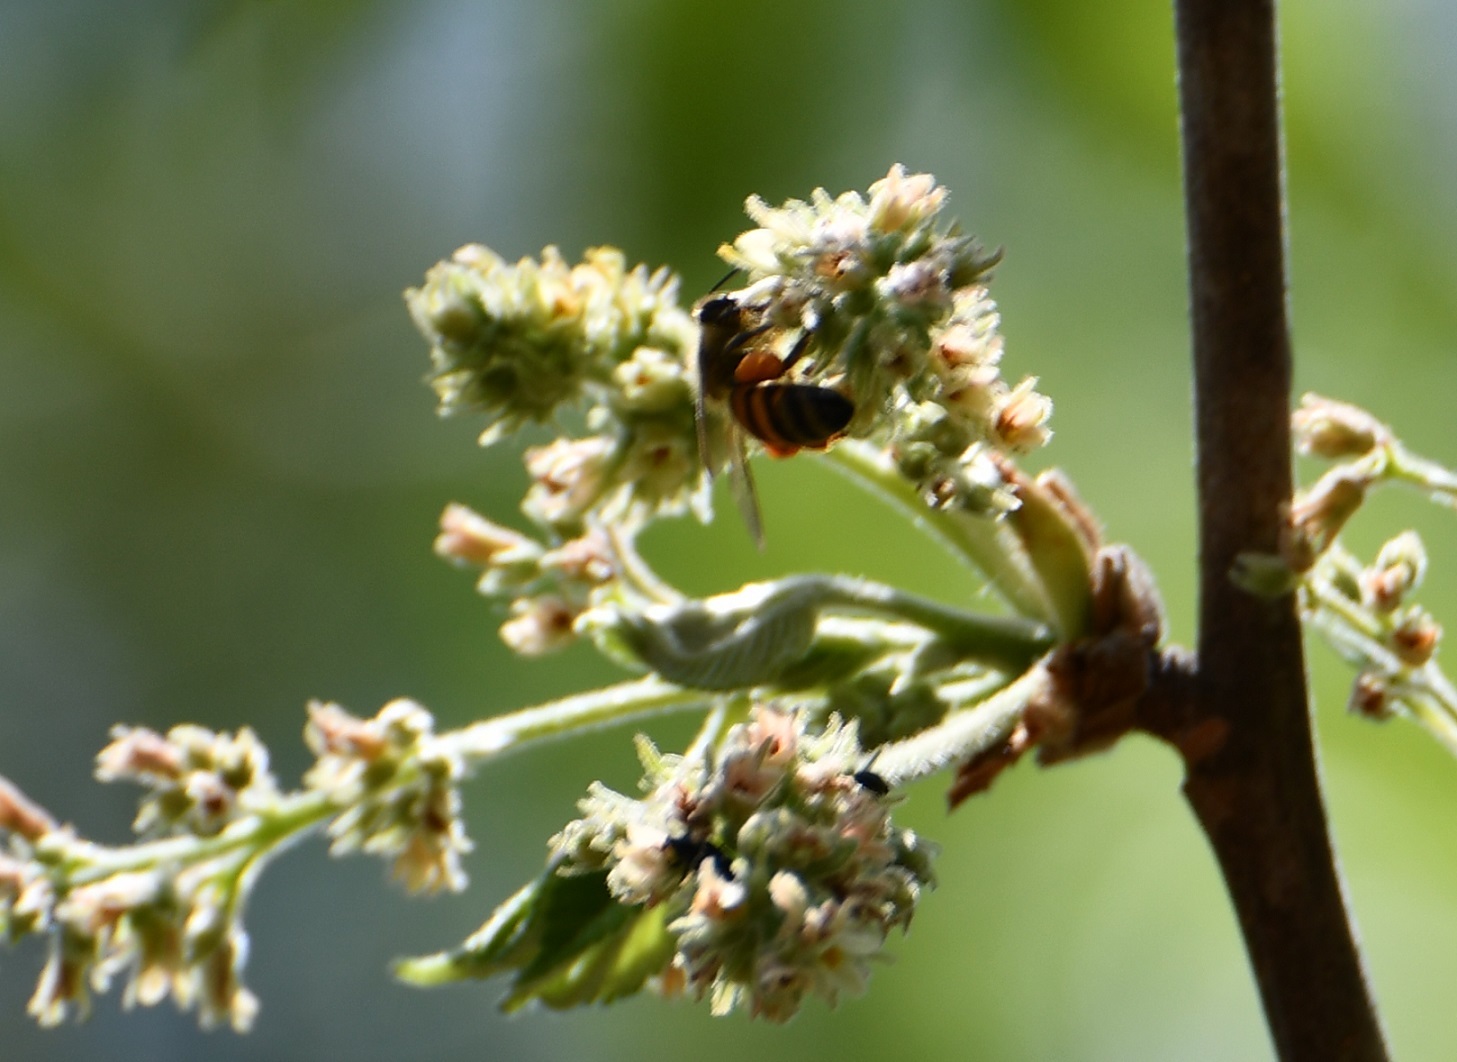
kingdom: Animalia
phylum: Arthropoda
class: Insecta
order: Hymenoptera
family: Apidae
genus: Apis
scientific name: Apis mellifera
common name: Honey bee
